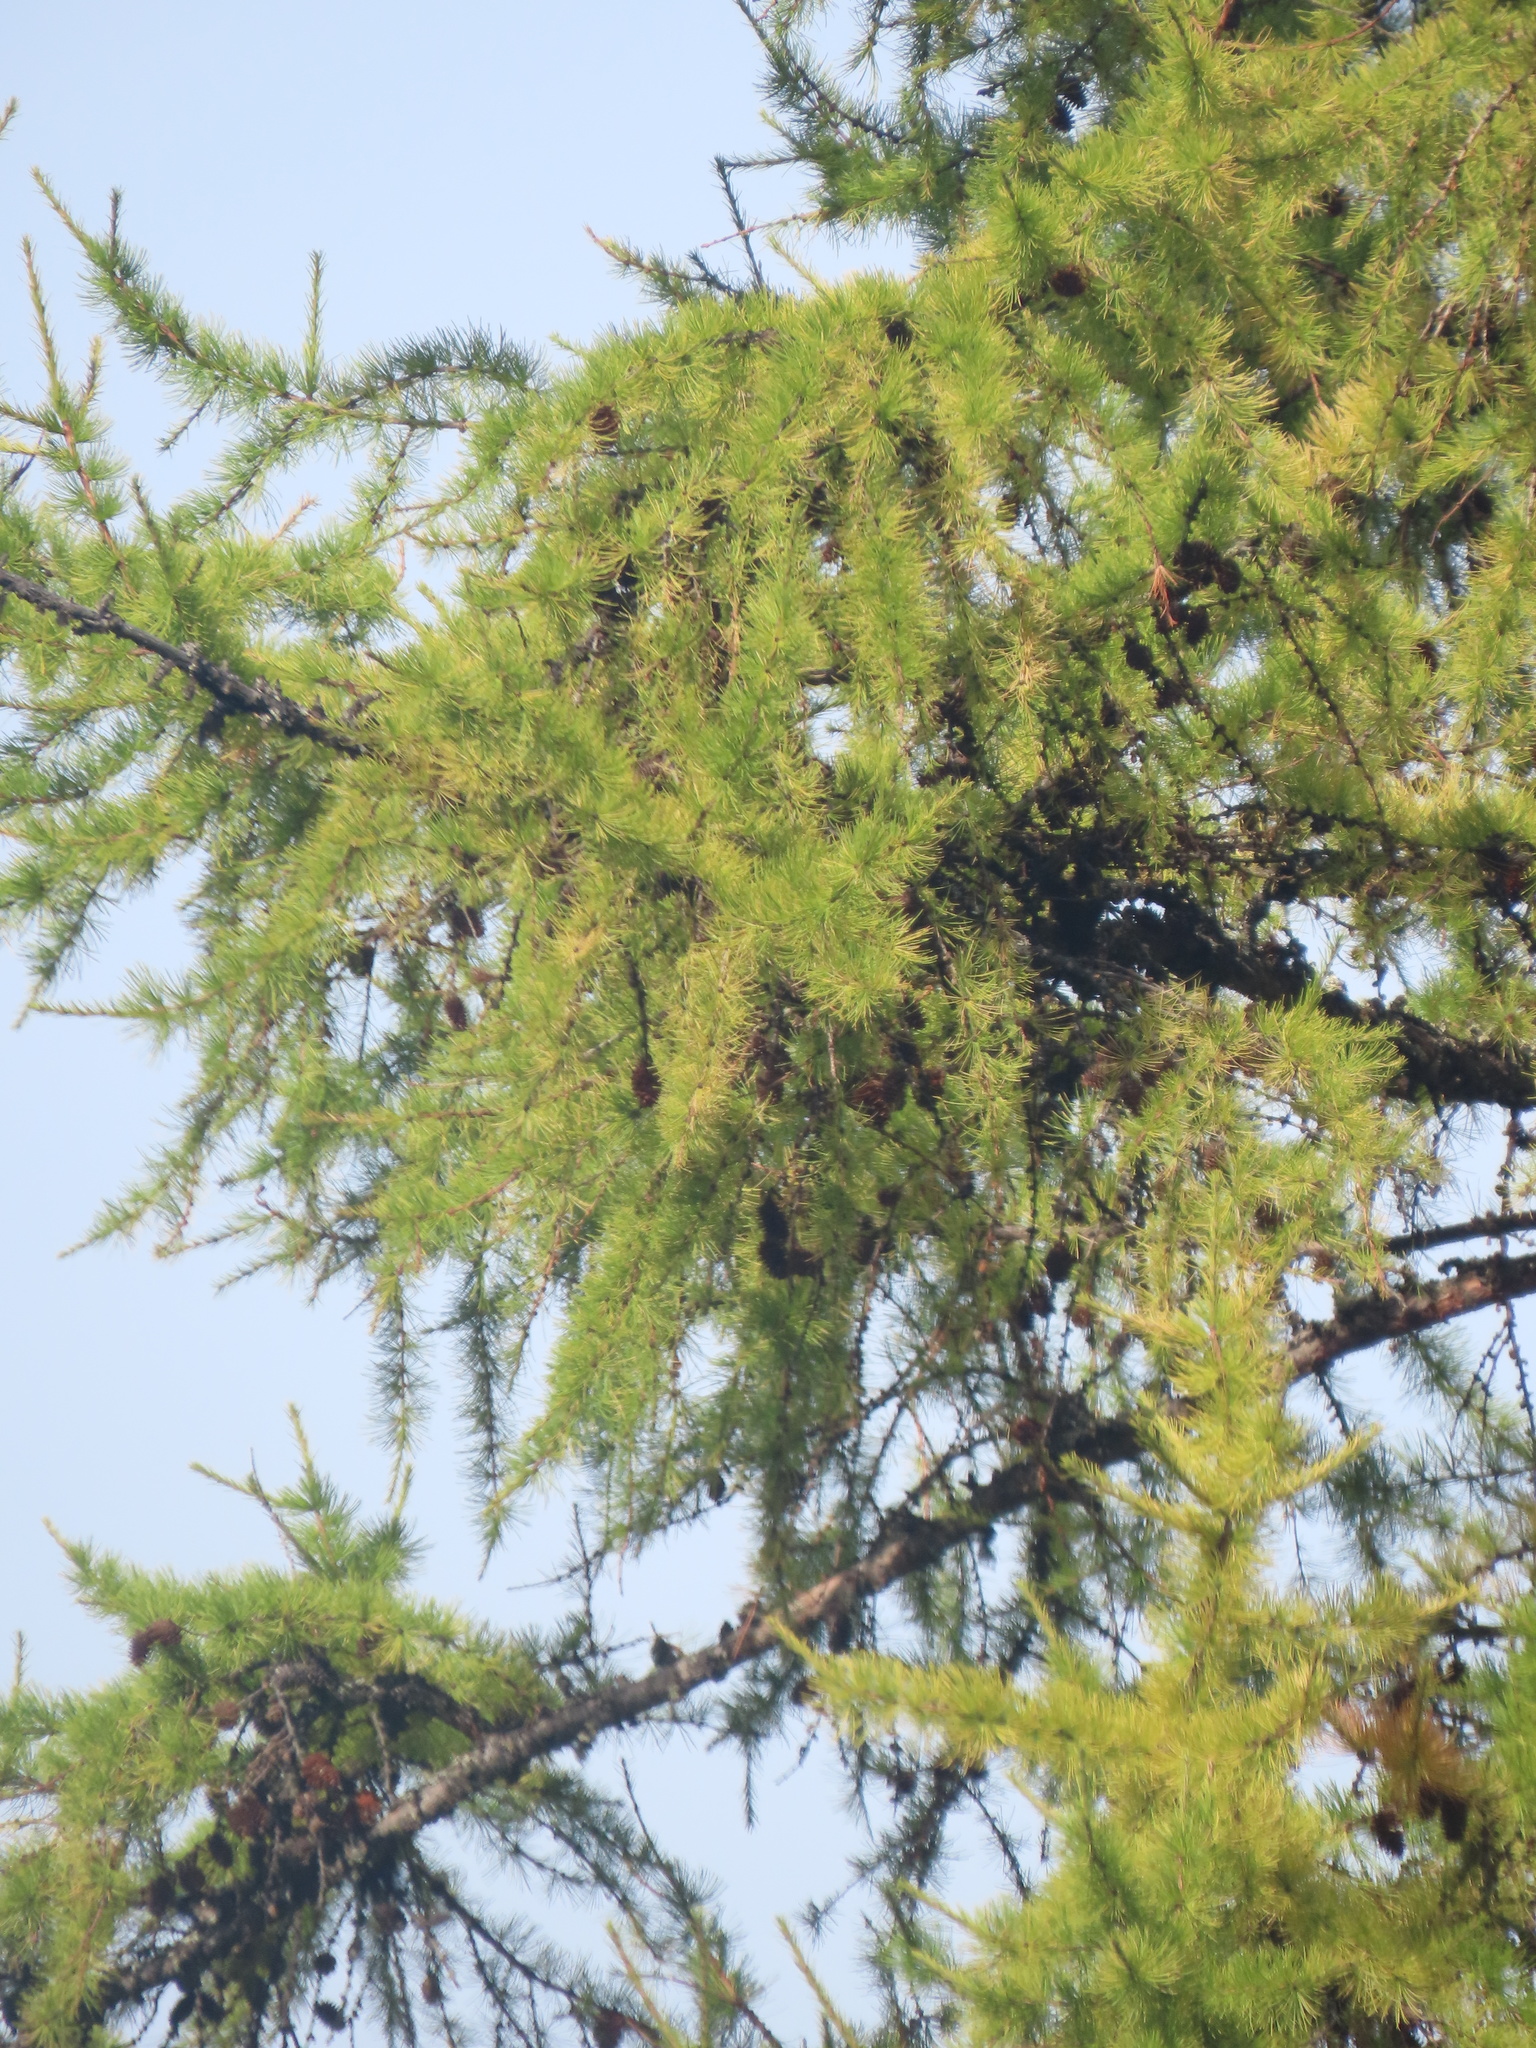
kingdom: Plantae
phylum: Tracheophyta
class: Pinopsida
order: Pinales
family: Pinaceae
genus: Larix
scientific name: Larix occidentalis
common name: Western larch
